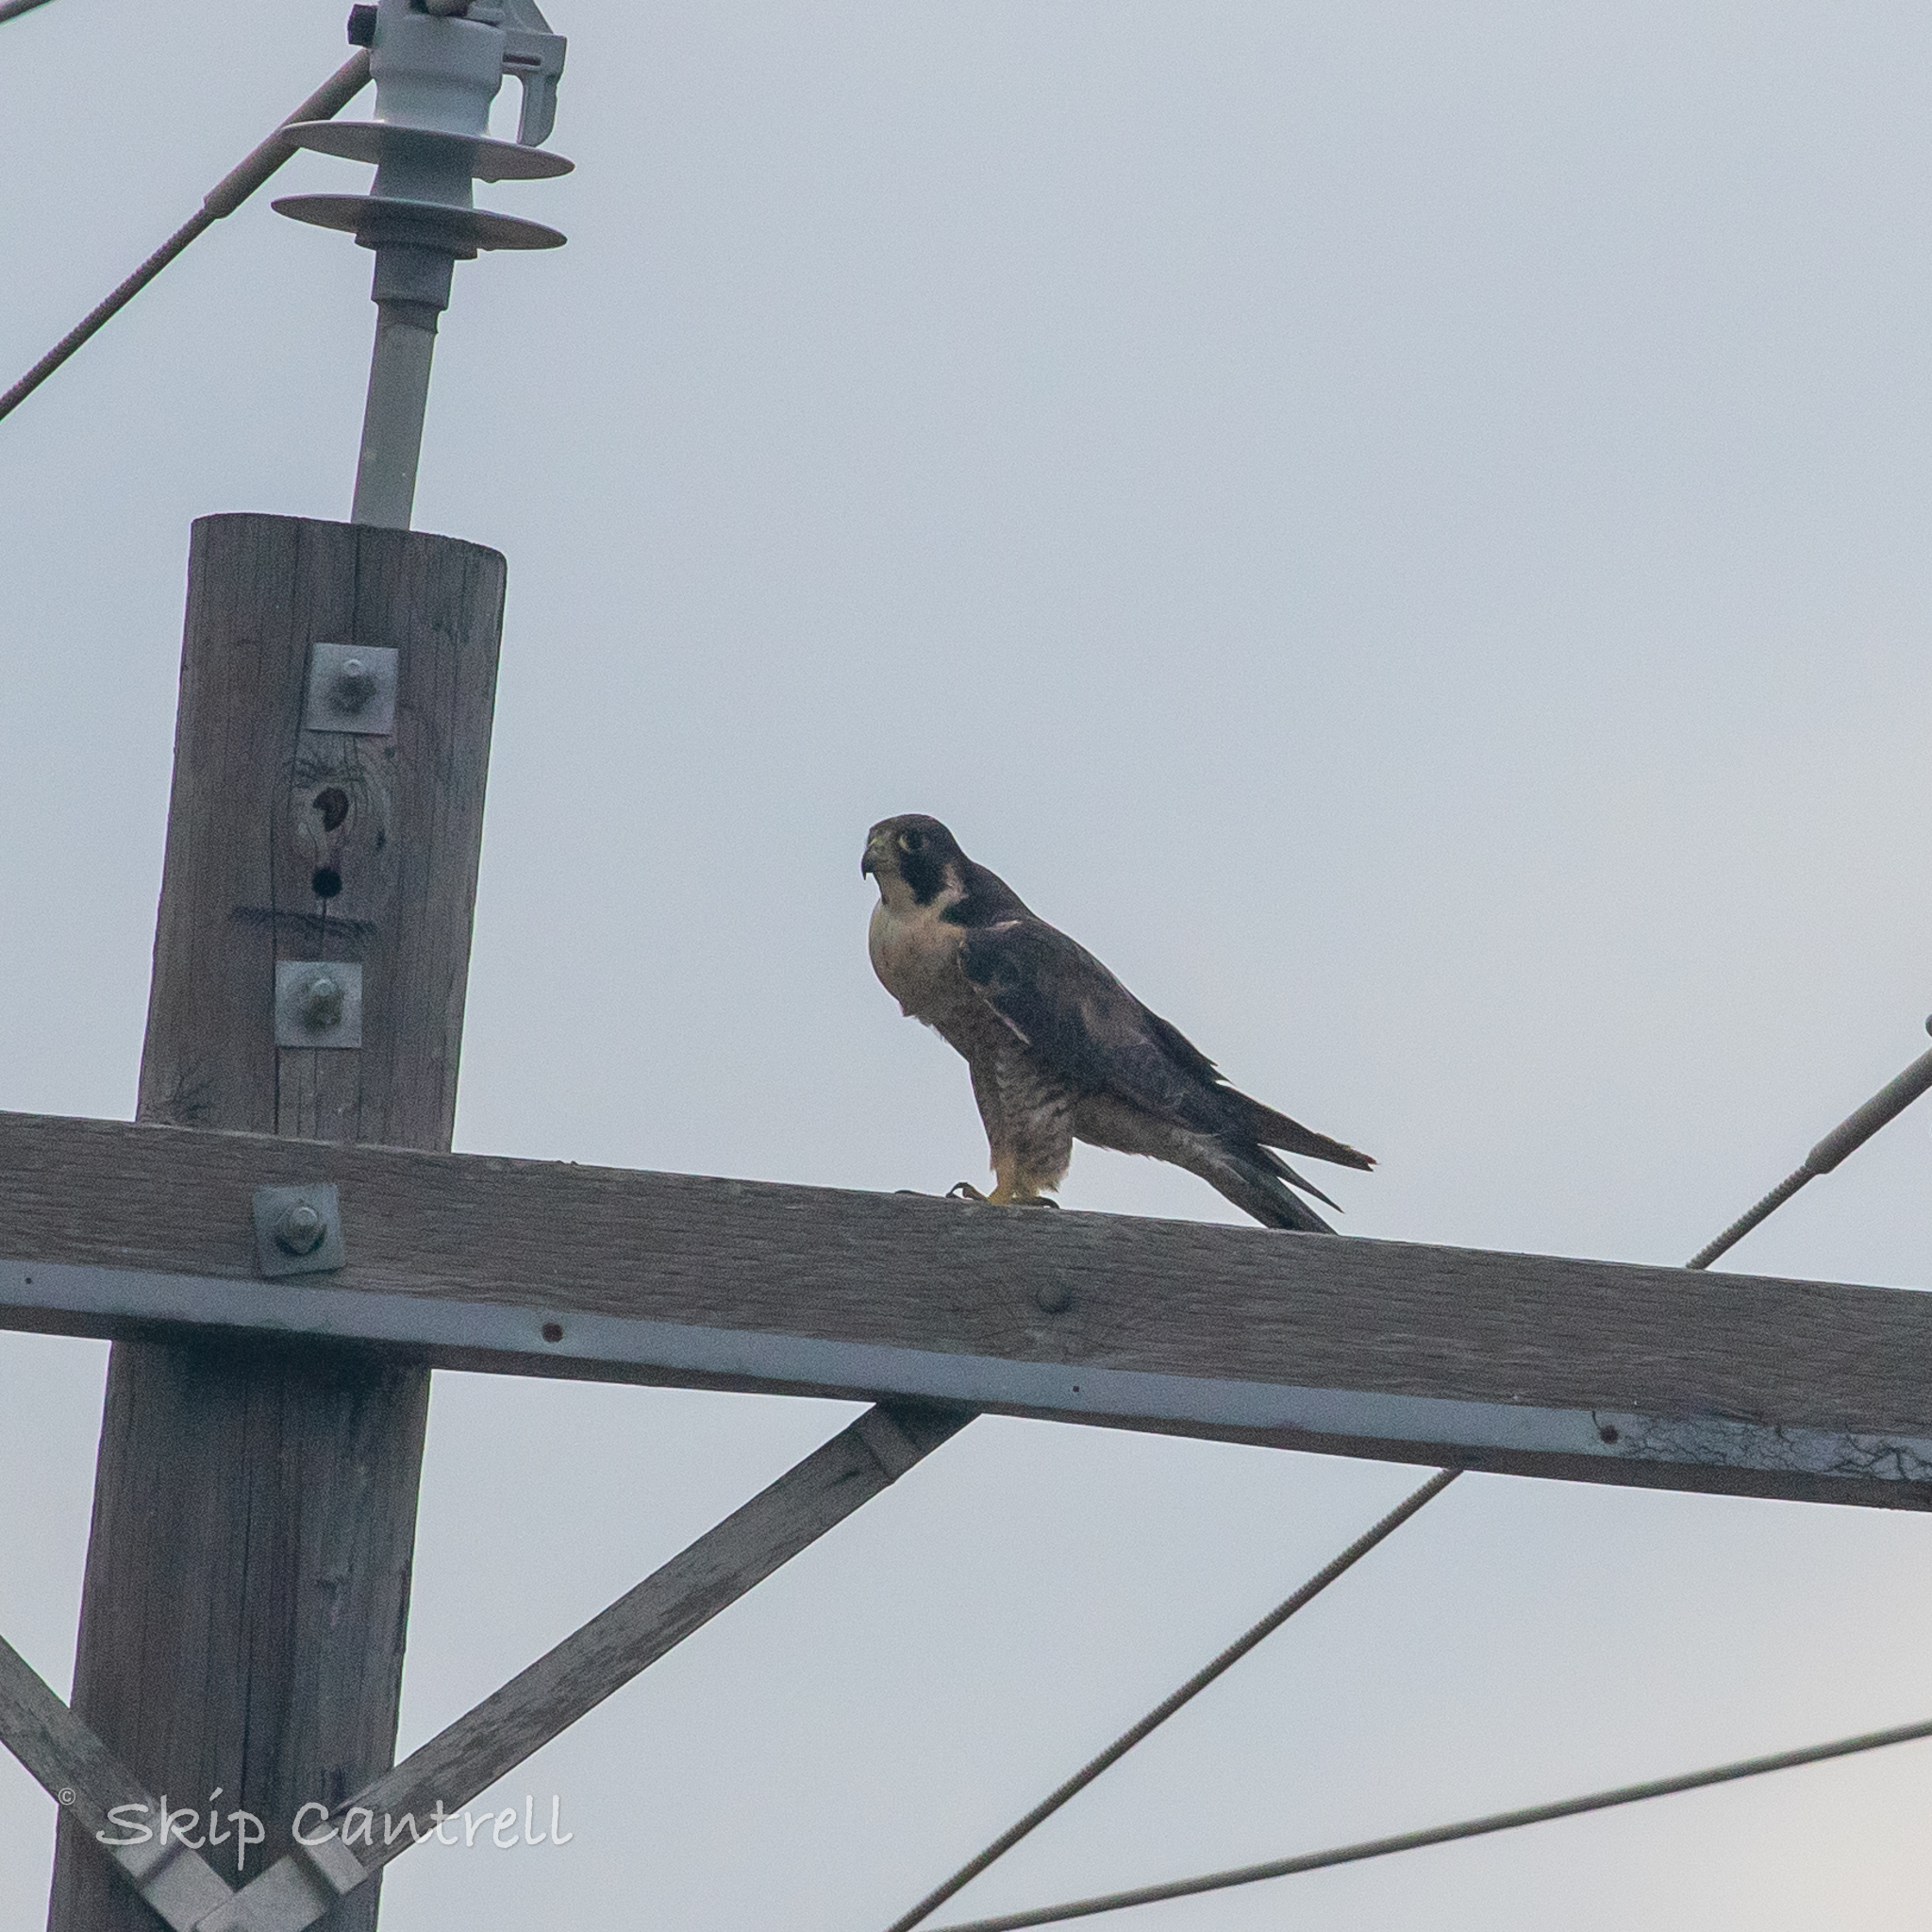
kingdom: Animalia
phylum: Chordata
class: Aves
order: Falconiformes
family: Falconidae
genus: Falco
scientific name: Falco peregrinus
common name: Peregrine falcon
